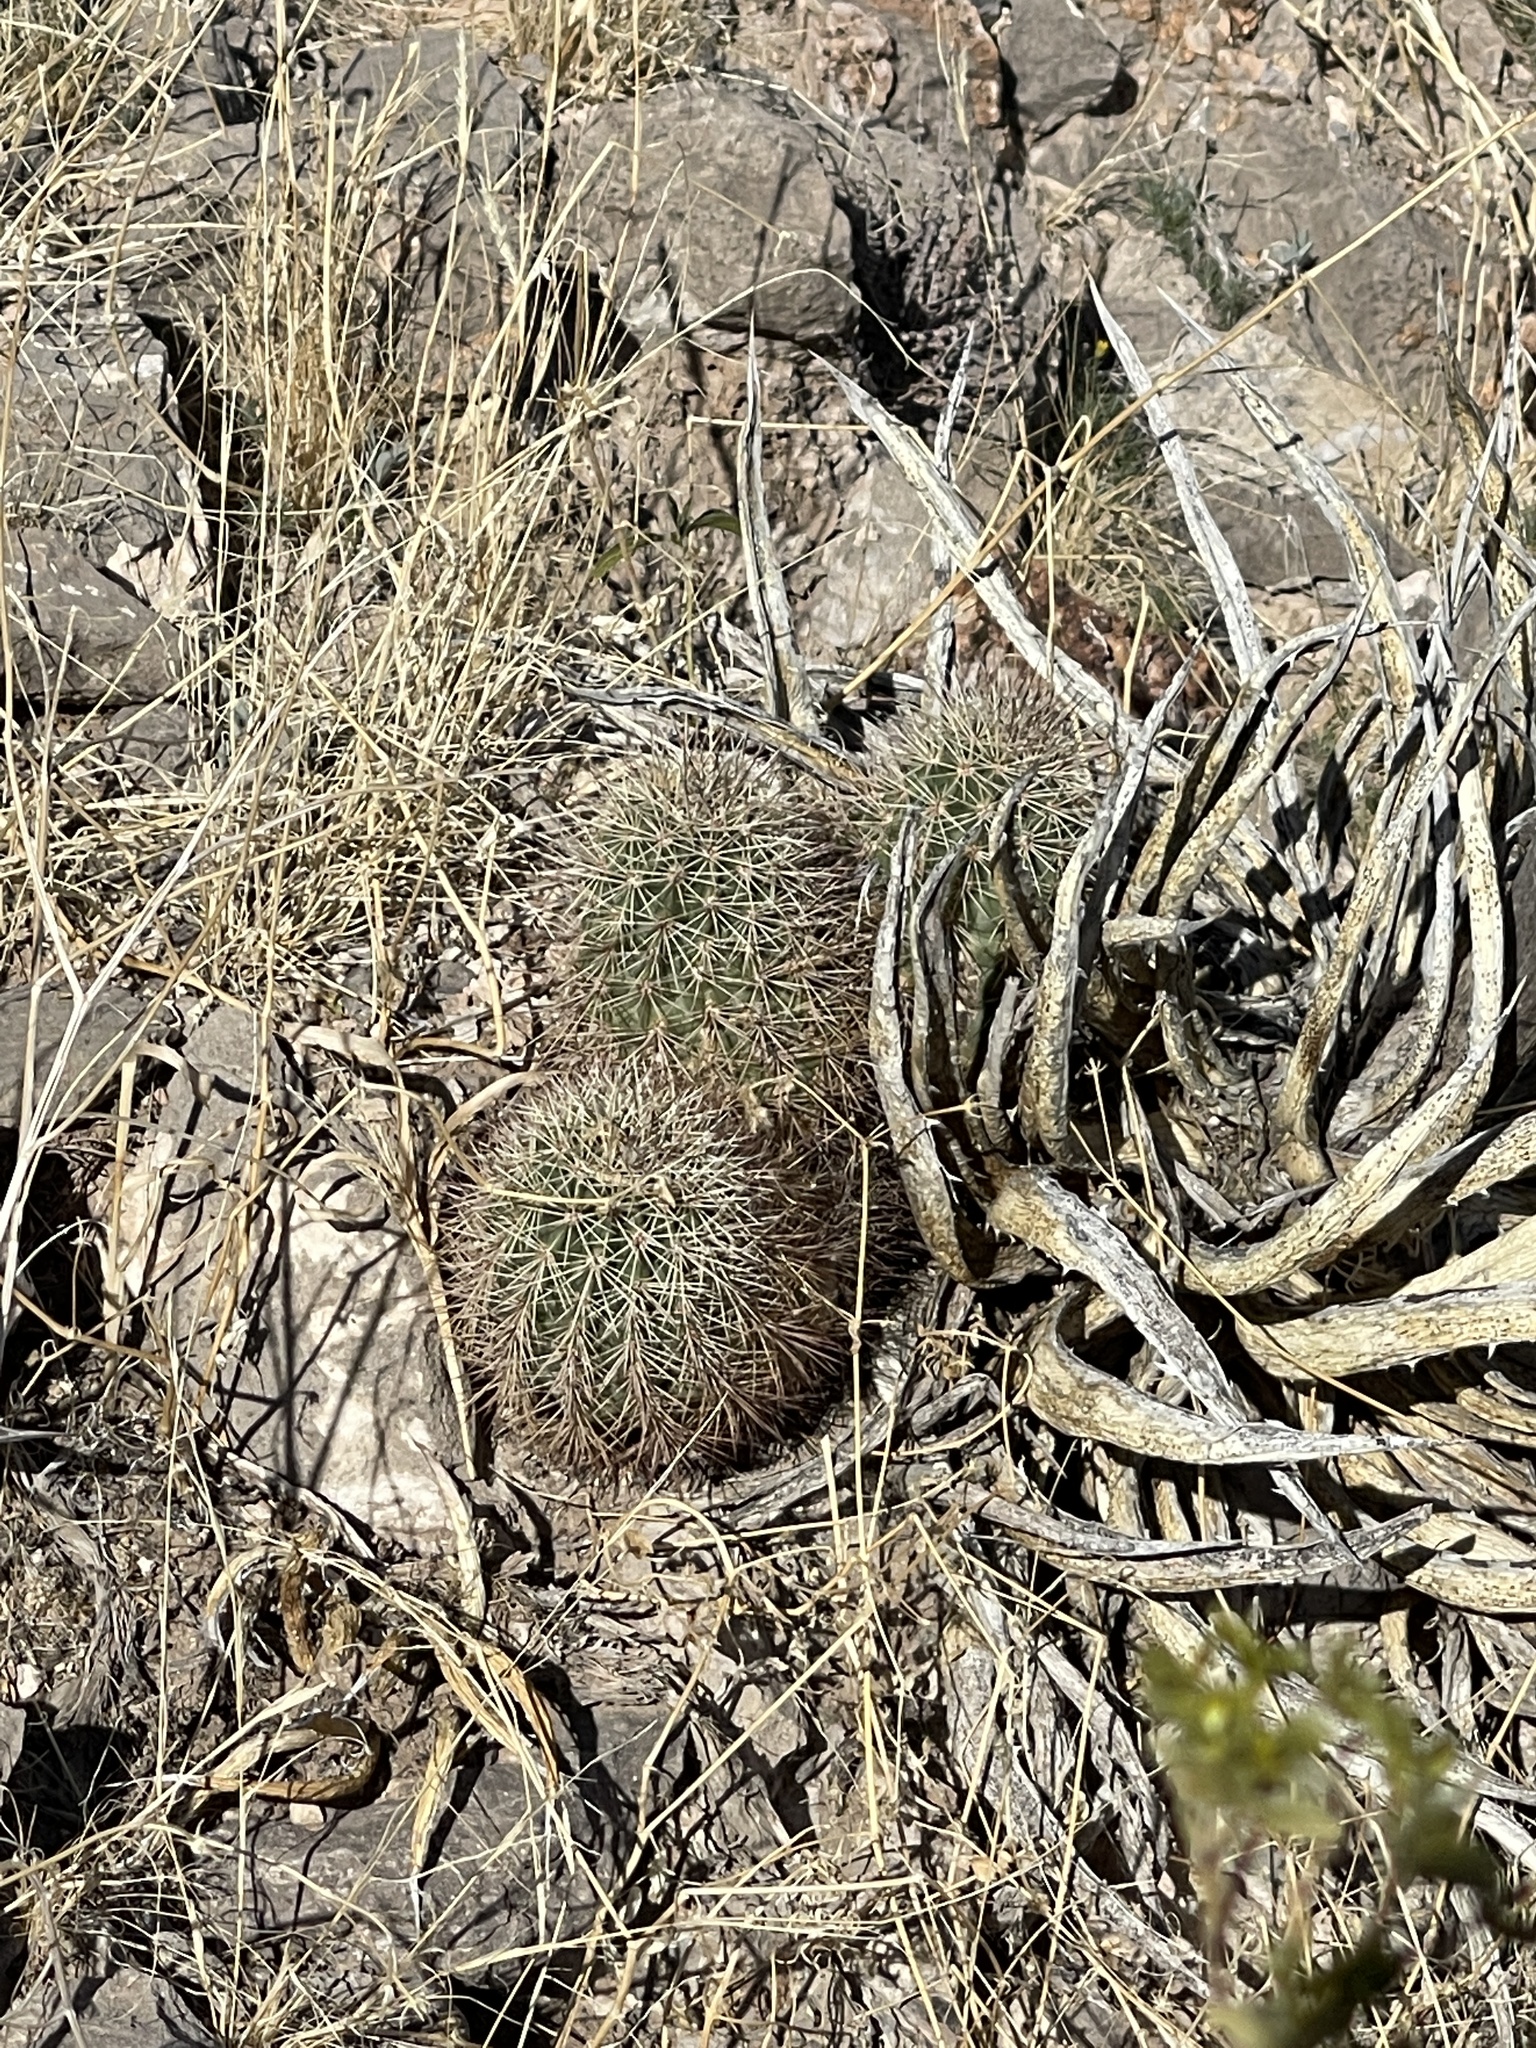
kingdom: Plantae
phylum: Tracheophyta
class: Magnoliopsida
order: Caryophyllales
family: Cactaceae
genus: Echinocereus
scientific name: Echinocereus coccineus
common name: Scarlet hedgehog cactus
